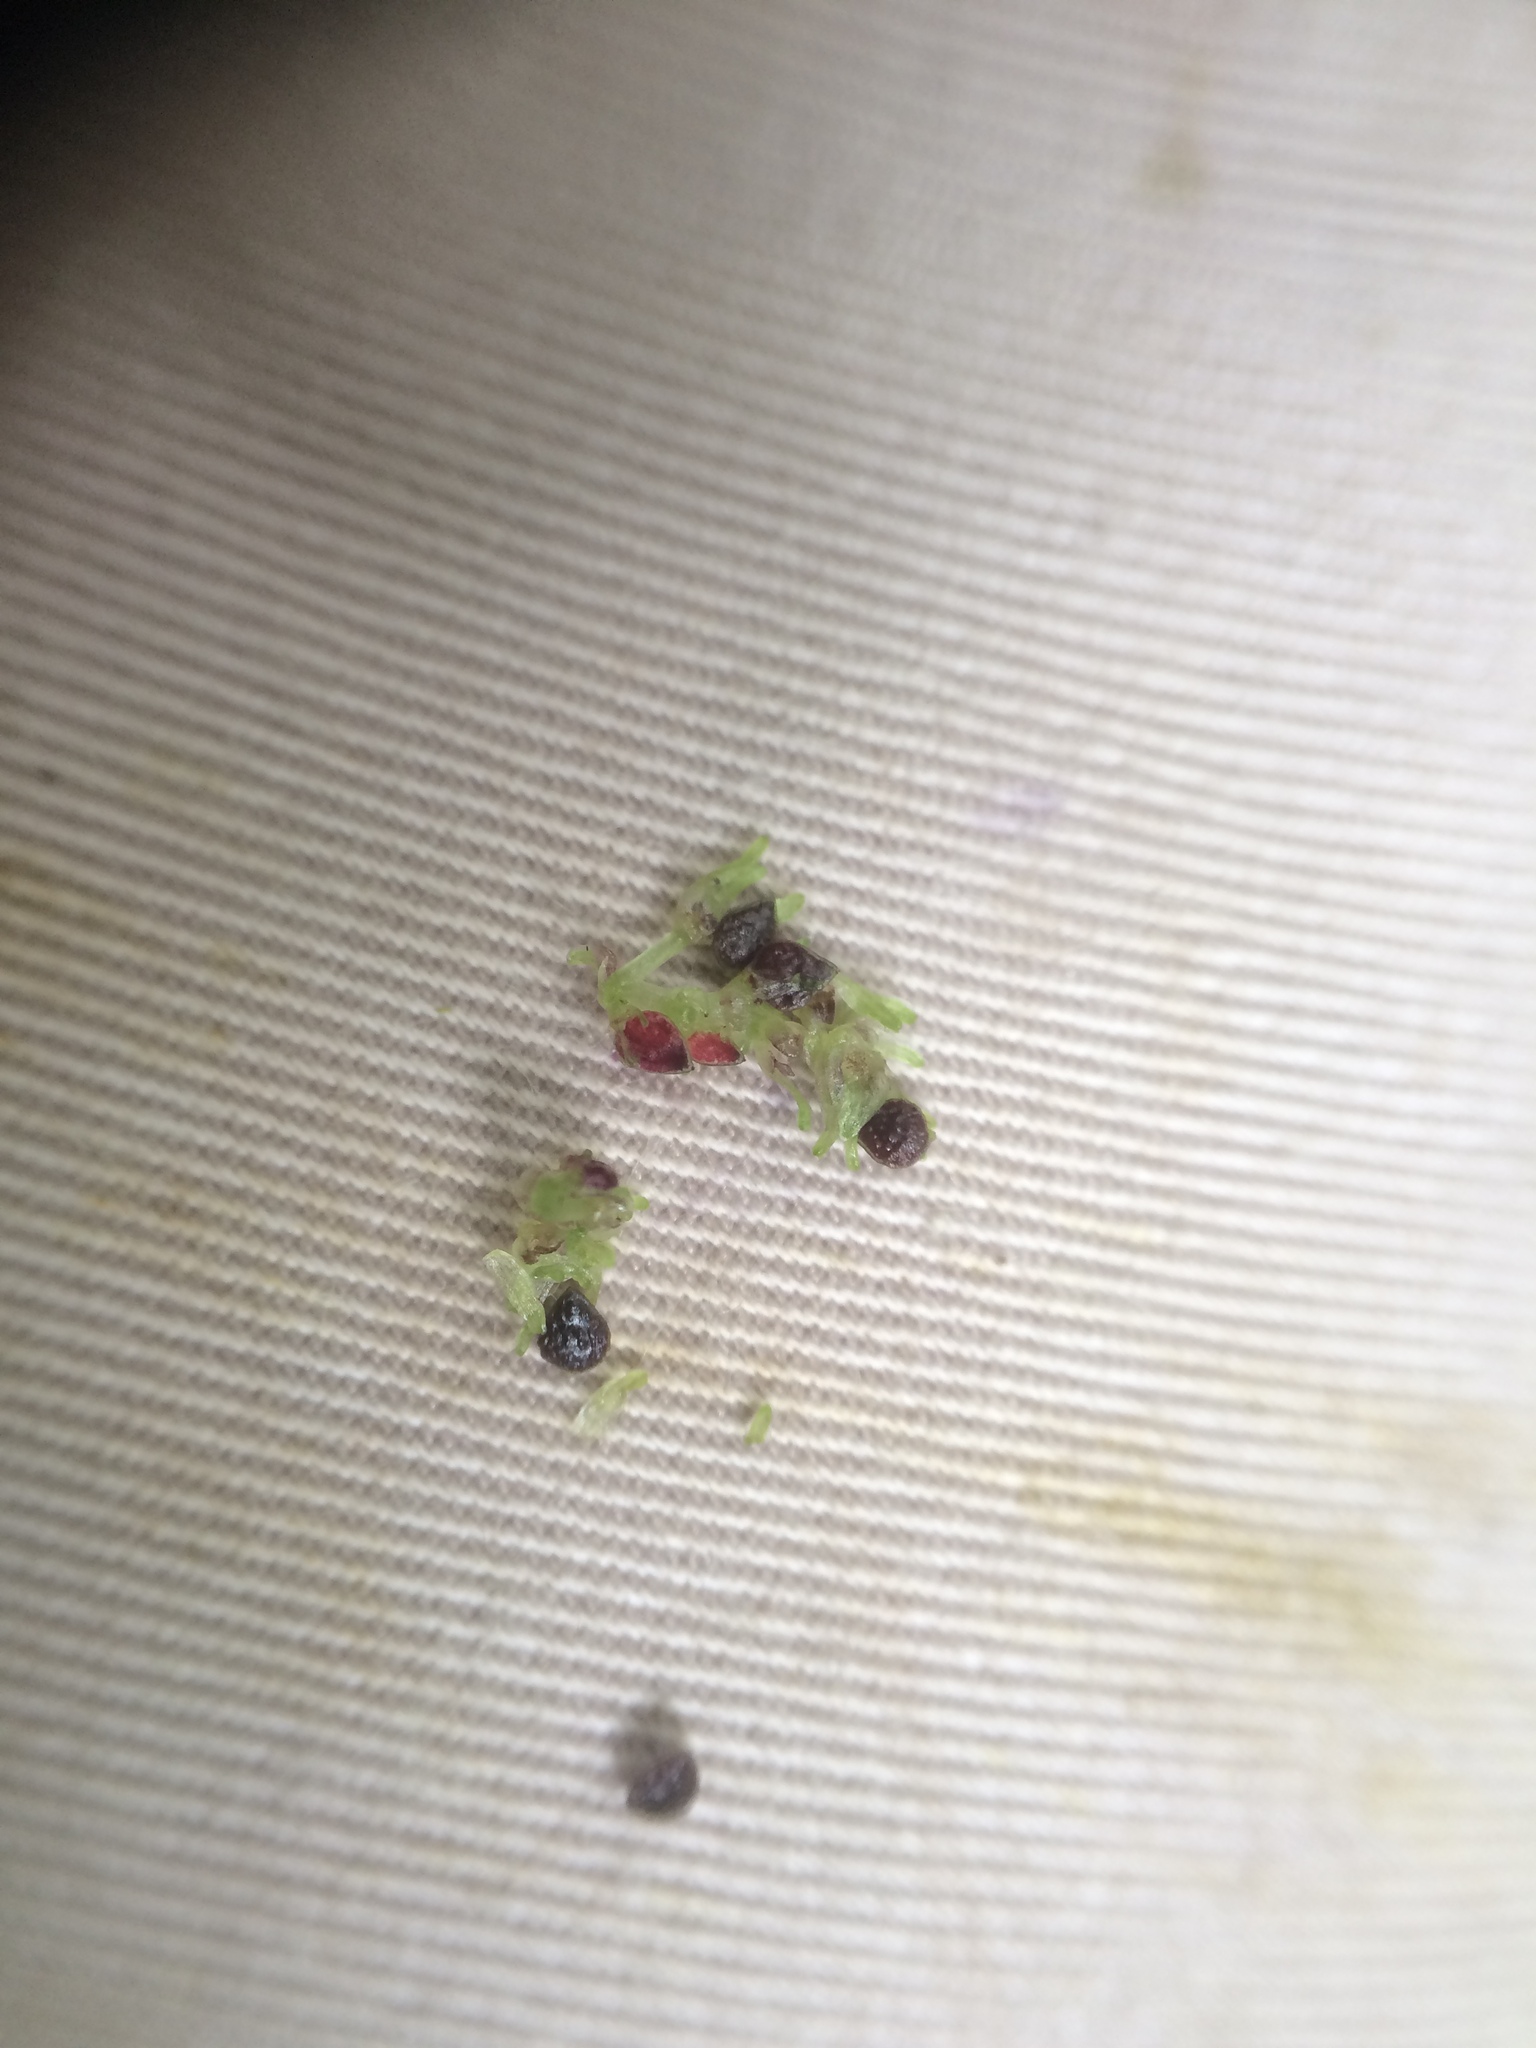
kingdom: Plantae
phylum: Tracheophyta
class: Magnoliopsida
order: Rosales
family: Urticaceae
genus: Pilea
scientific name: Pilea fontana
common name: Clearweed
